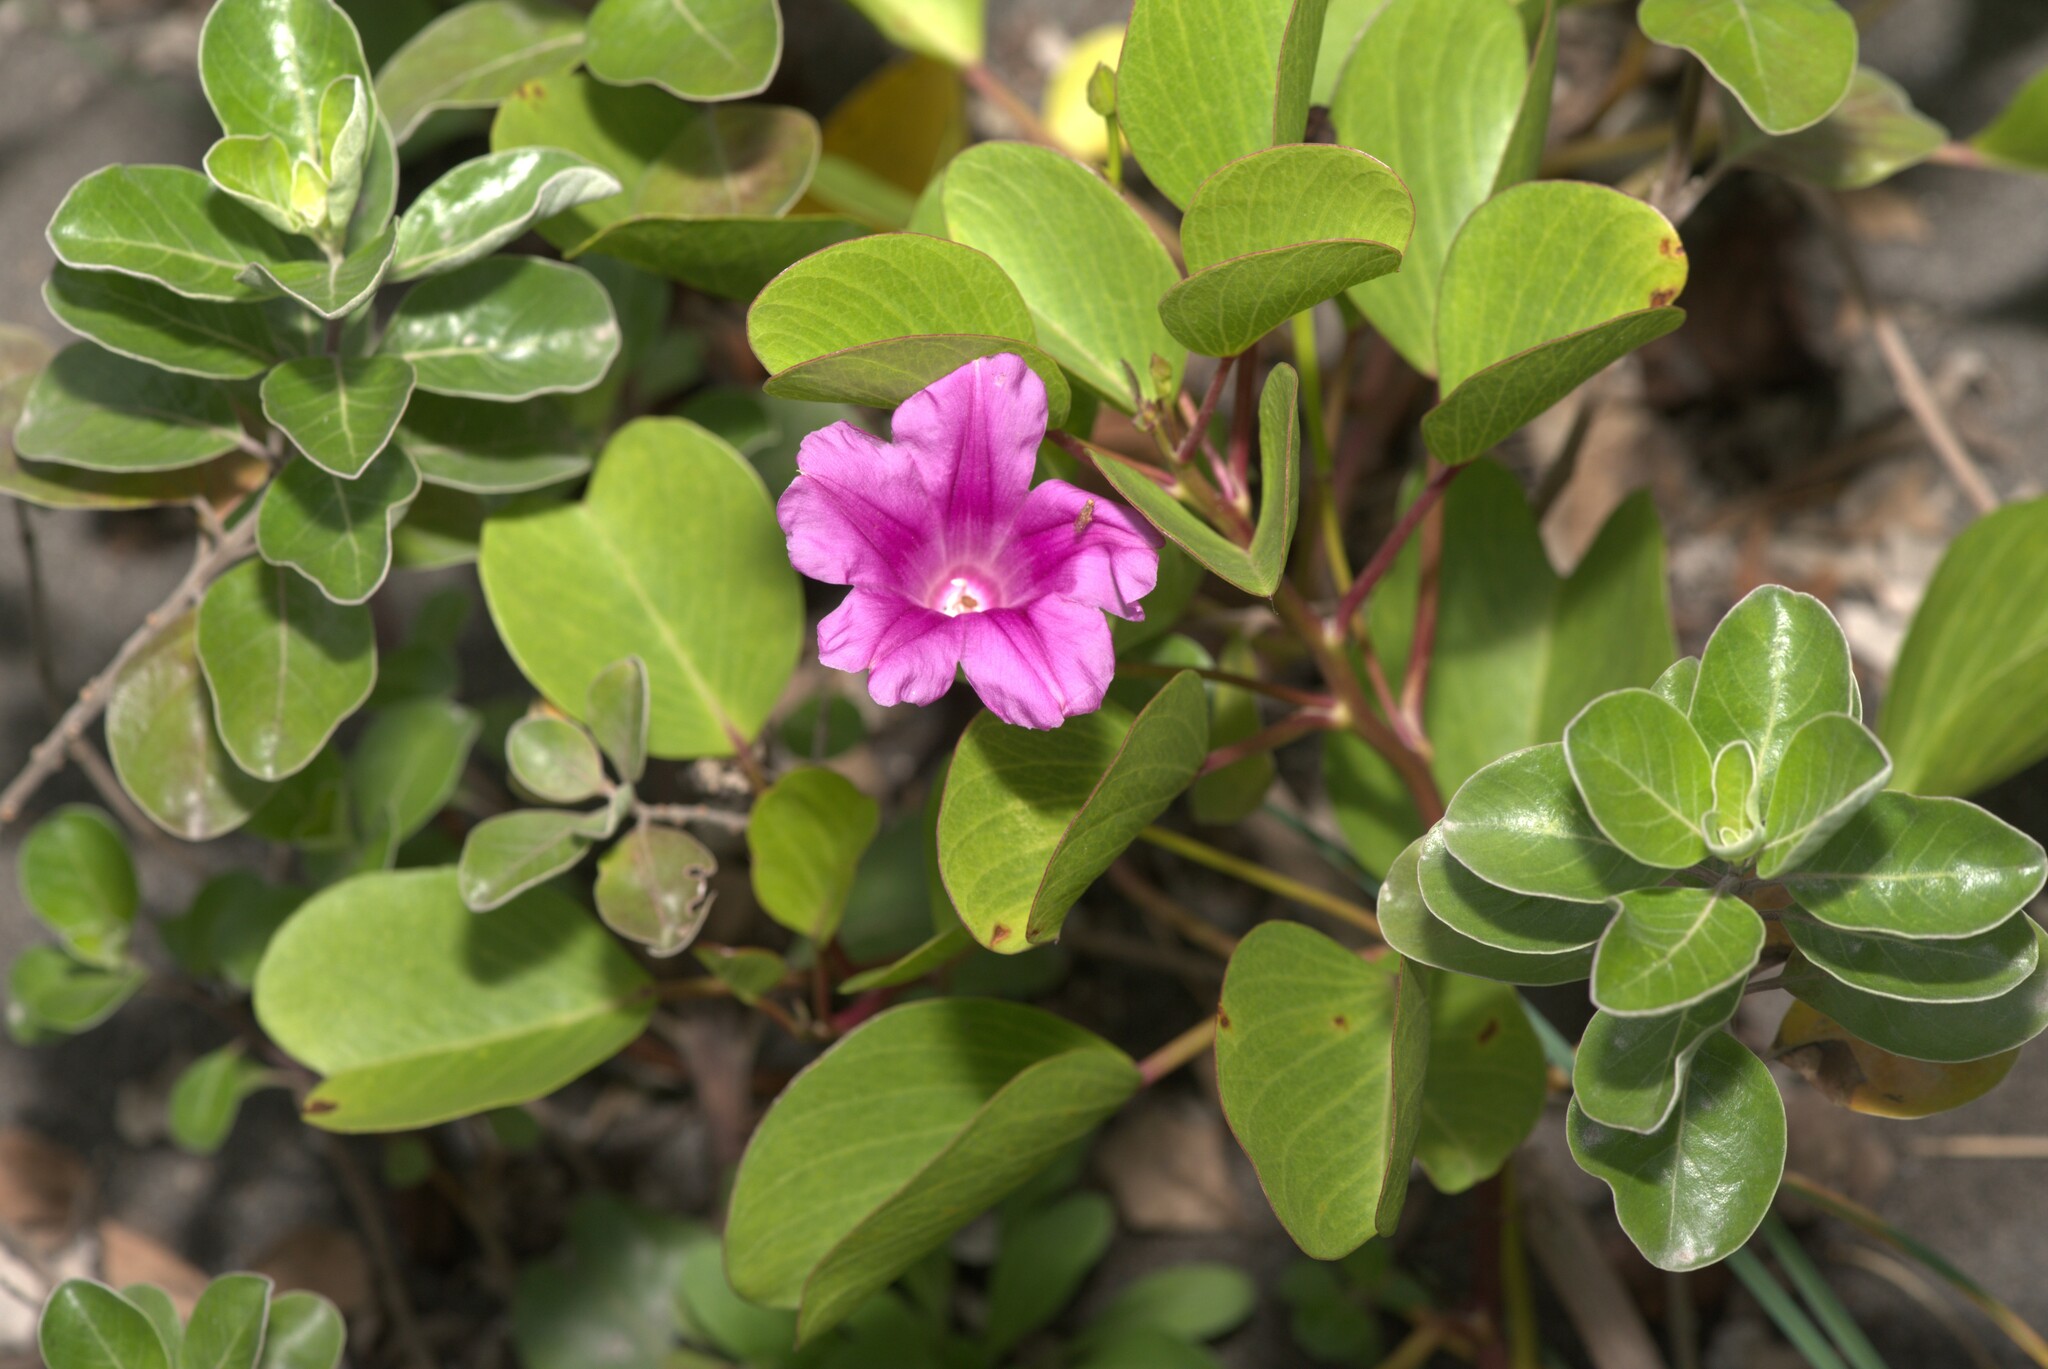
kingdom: Plantae
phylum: Tracheophyta
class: Magnoliopsida
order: Solanales
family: Convolvulaceae
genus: Ipomoea
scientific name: Ipomoea pes-caprae
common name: Beach morning glory
